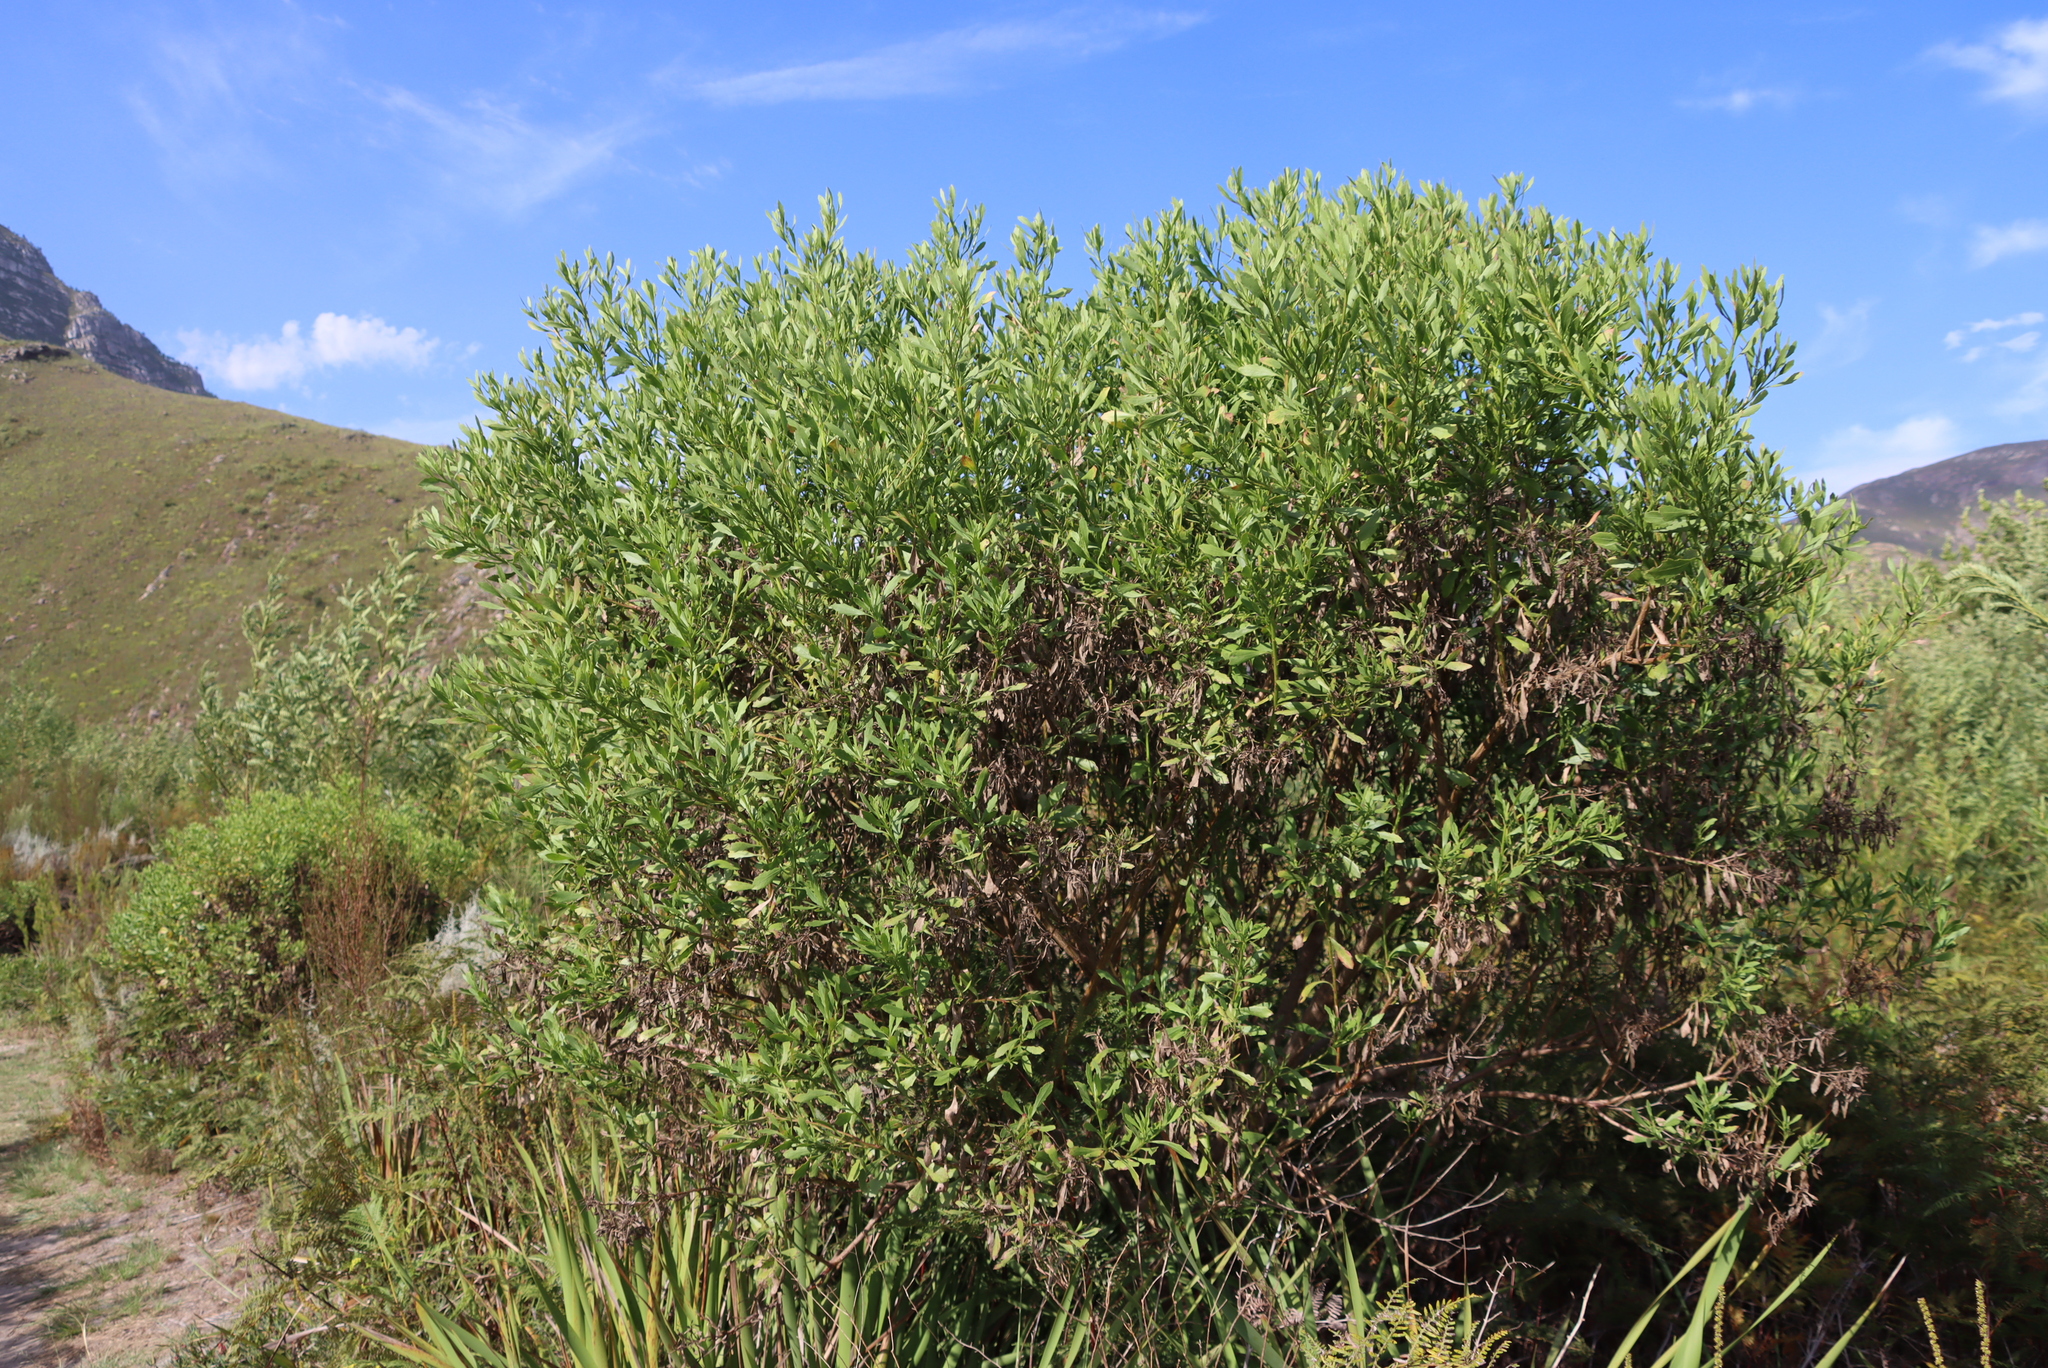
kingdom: Plantae
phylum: Tracheophyta
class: Magnoliopsida
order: Asterales
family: Asteraceae
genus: Osteospermum
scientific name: Osteospermum moniliferum
